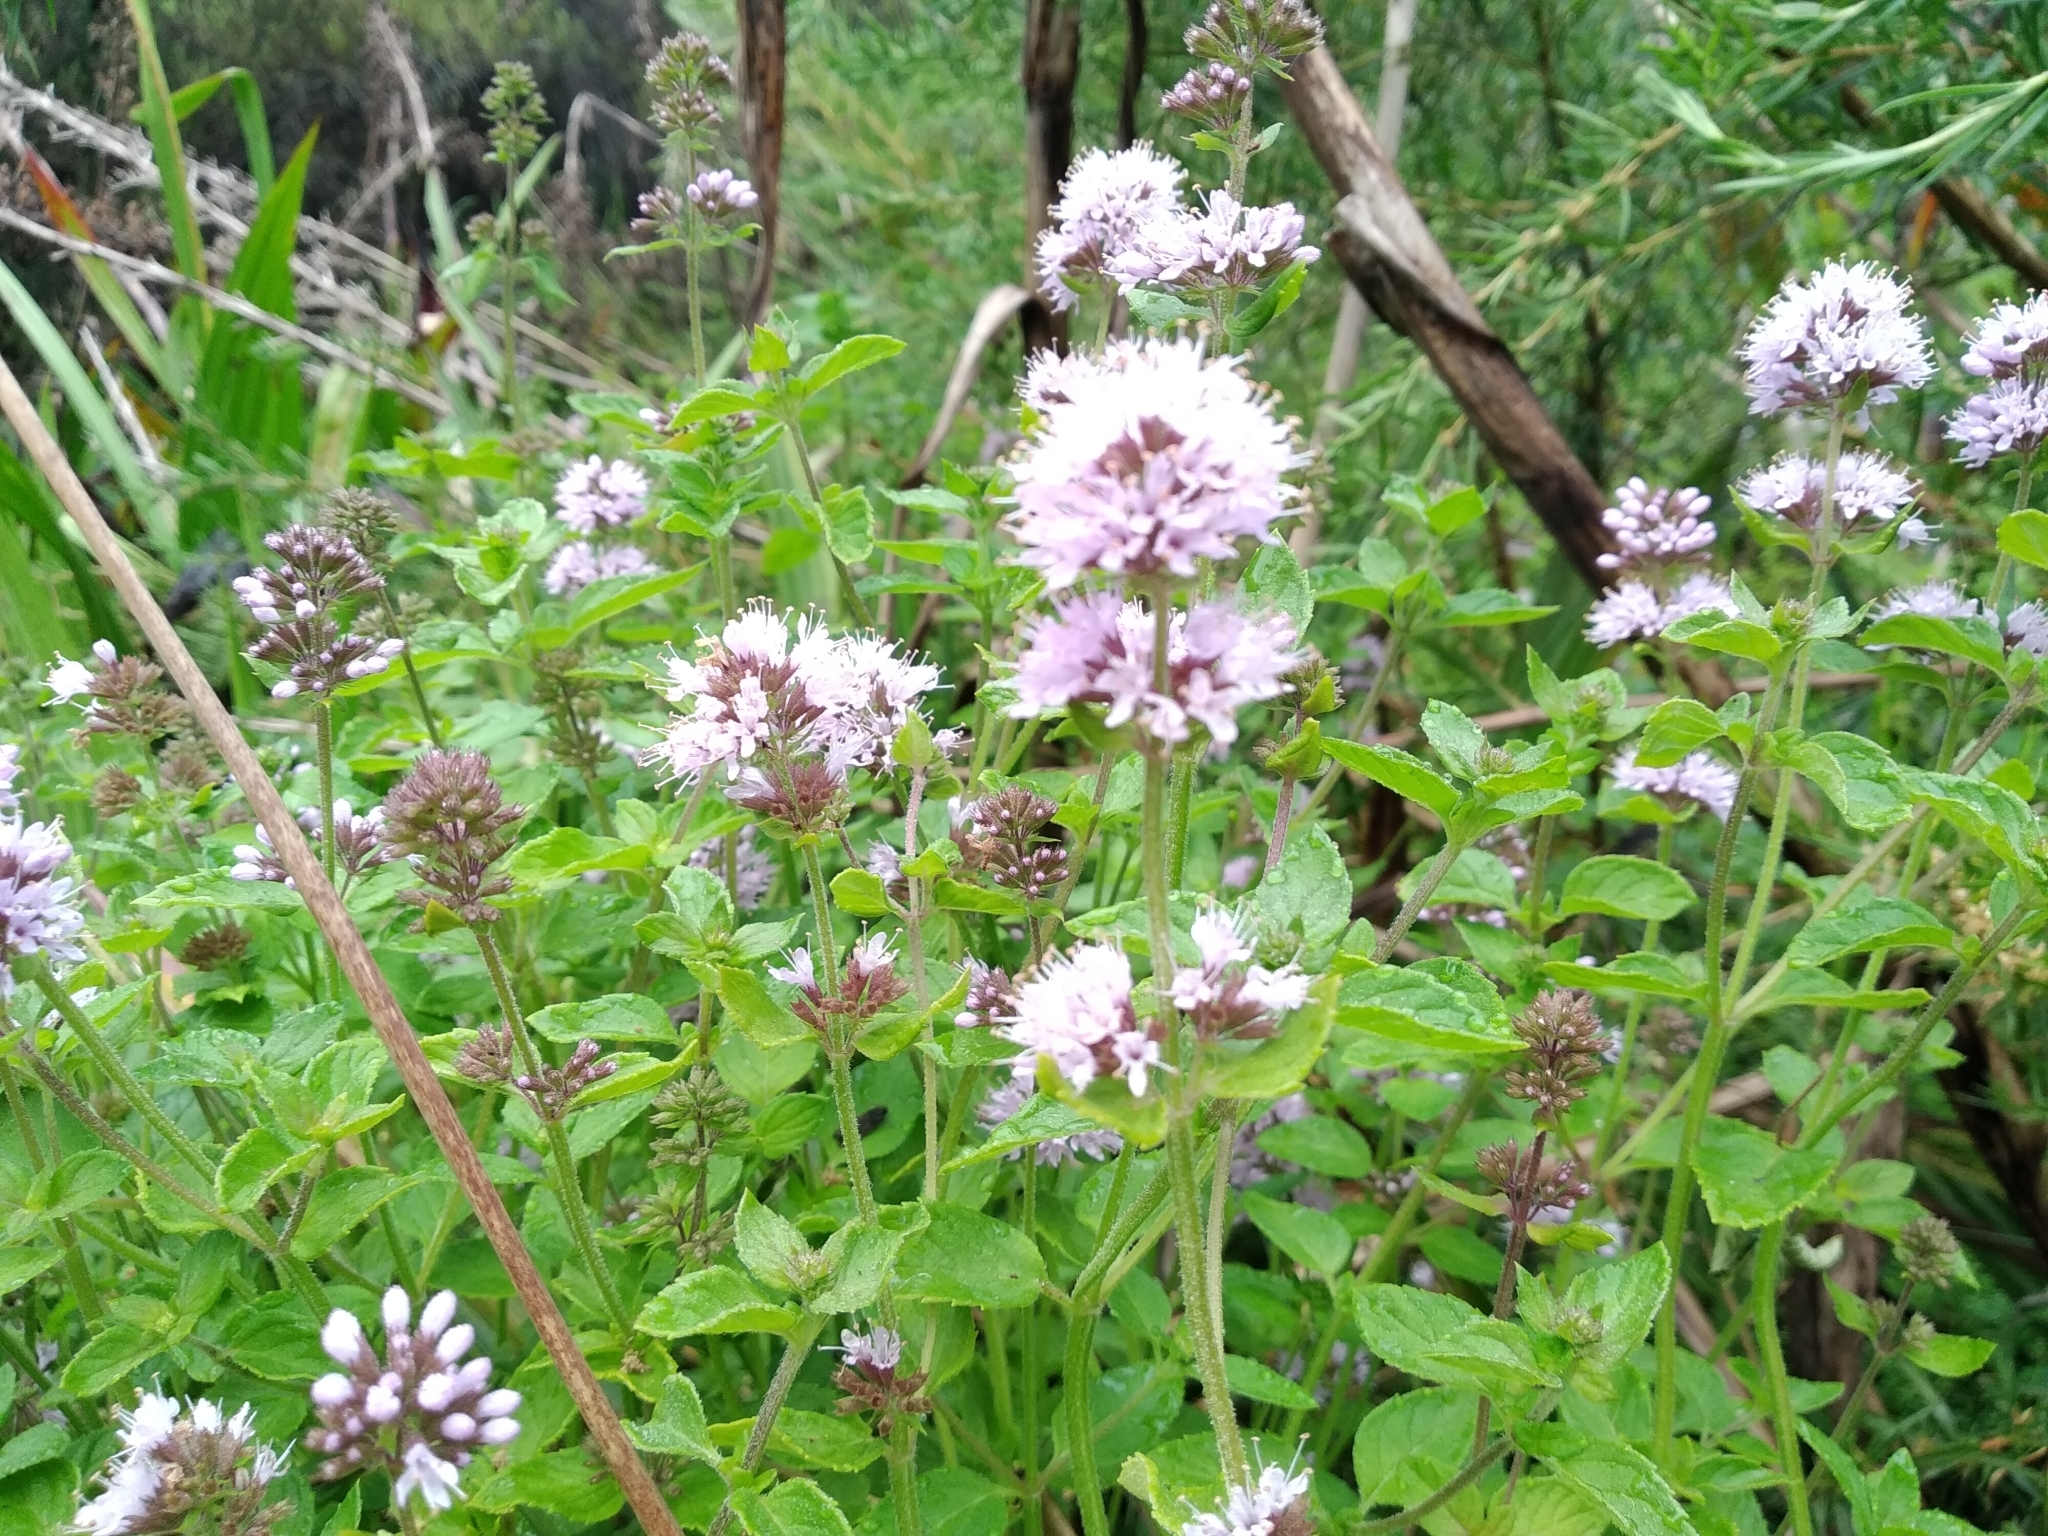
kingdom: Plantae
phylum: Tracheophyta
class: Magnoliopsida
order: Lamiales
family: Lamiaceae
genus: Mentha
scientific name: Mentha aquatica
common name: Water mint
